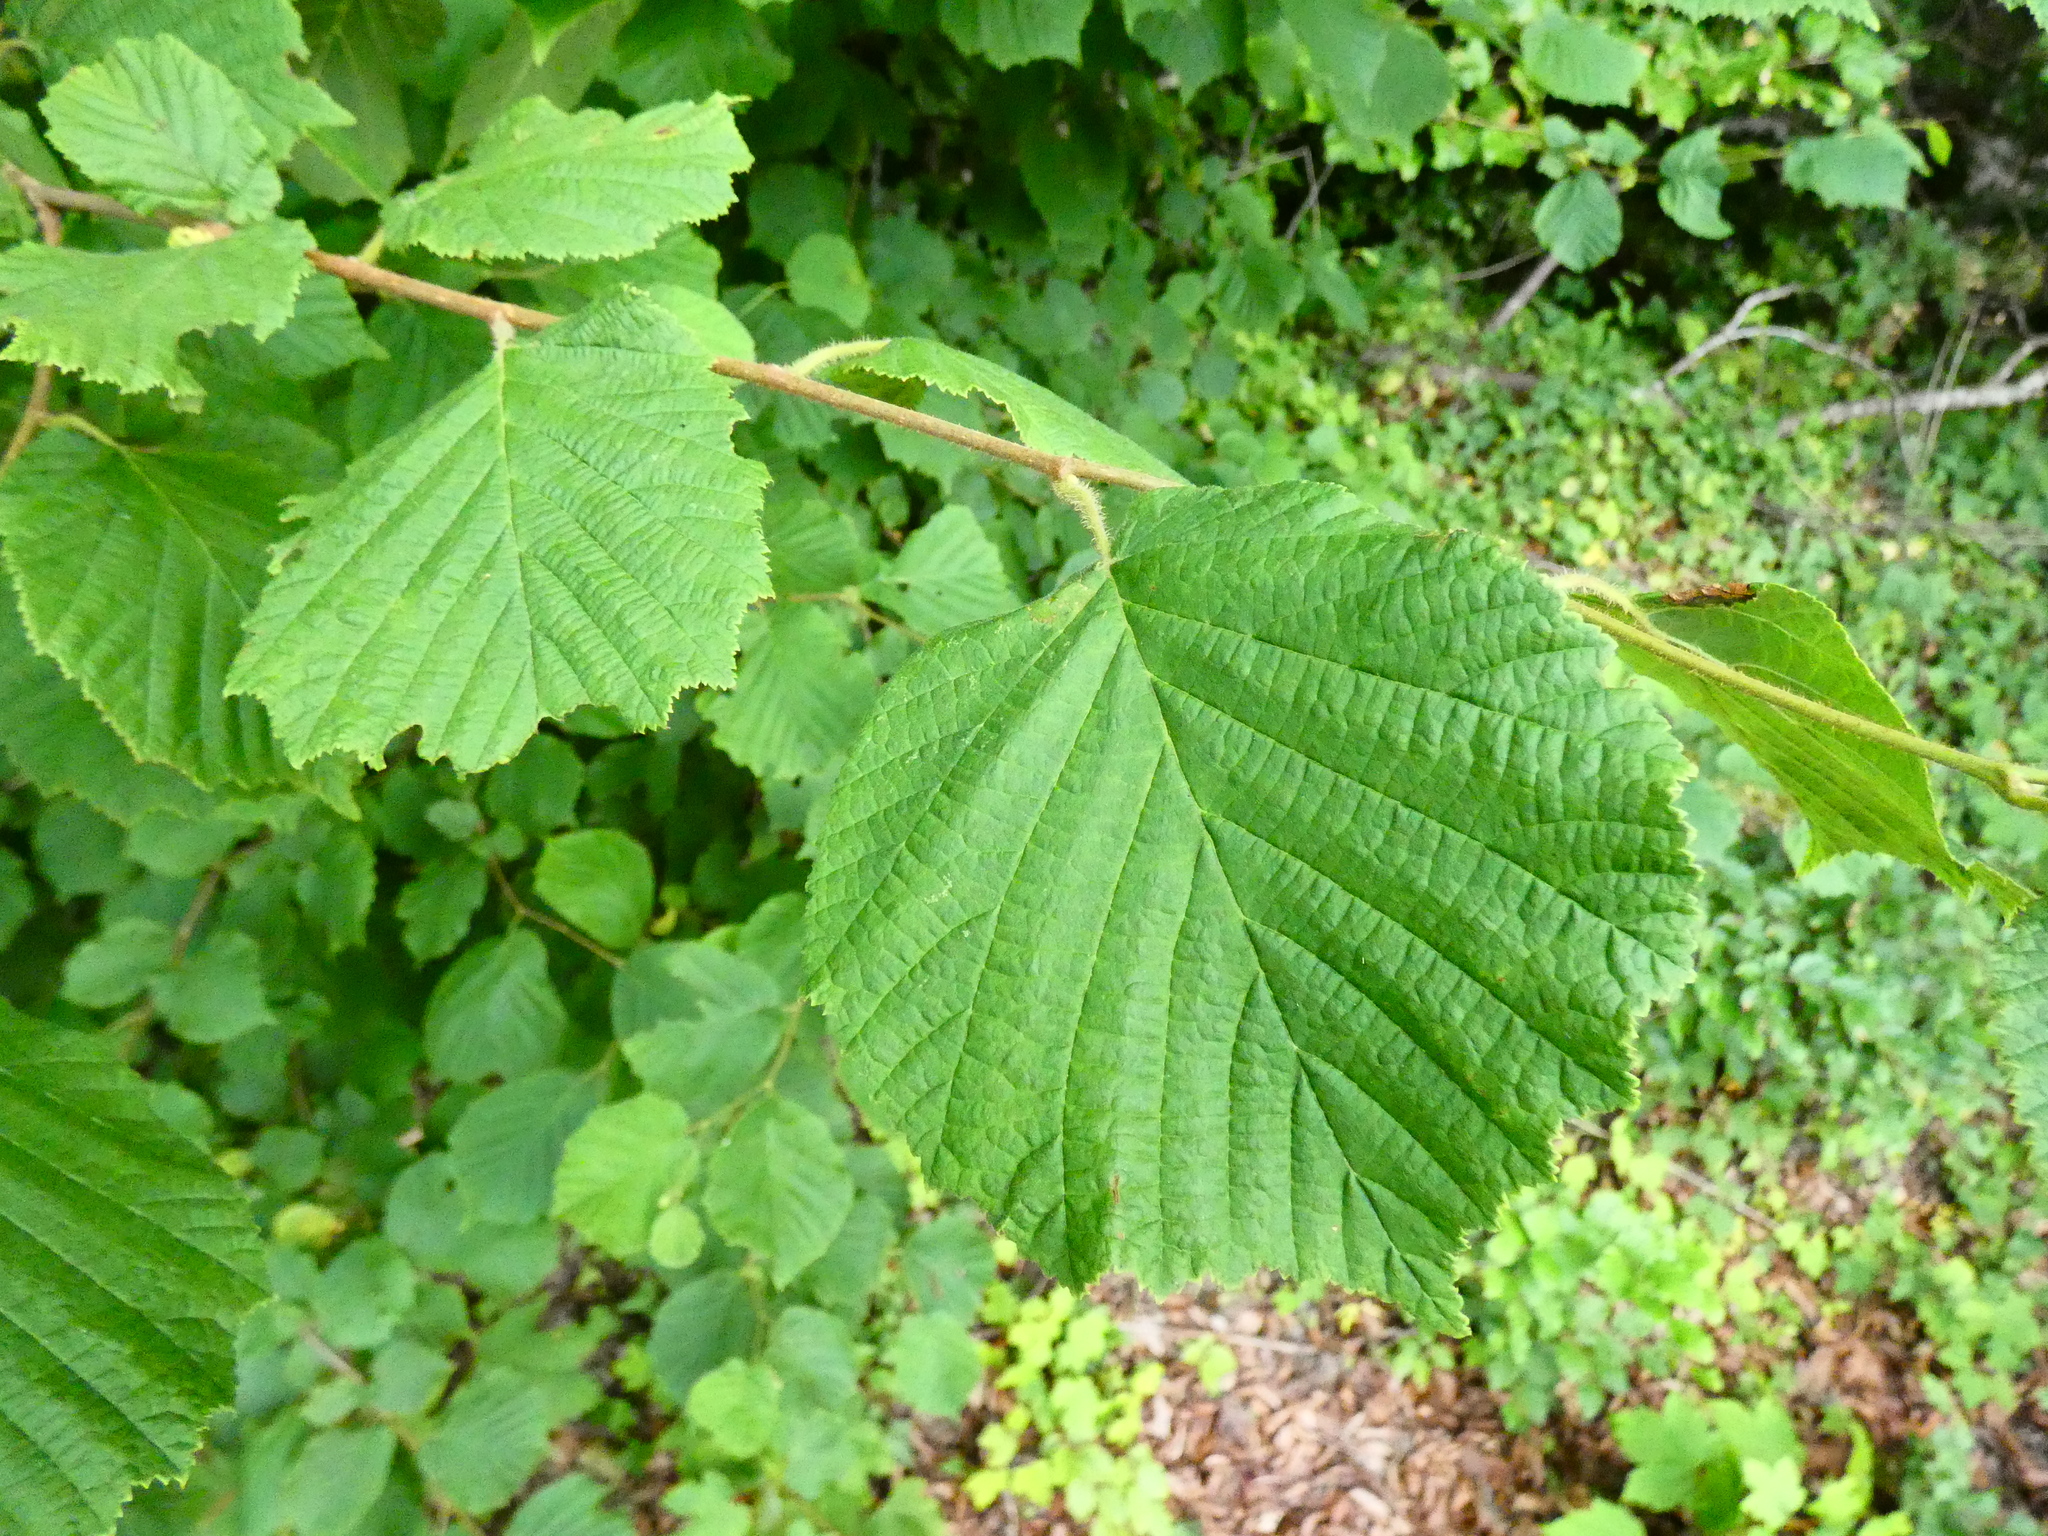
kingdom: Plantae
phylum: Tracheophyta
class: Magnoliopsida
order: Fagales
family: Betulaceae
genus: Corylus
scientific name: Corylus avellana
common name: European hazel
